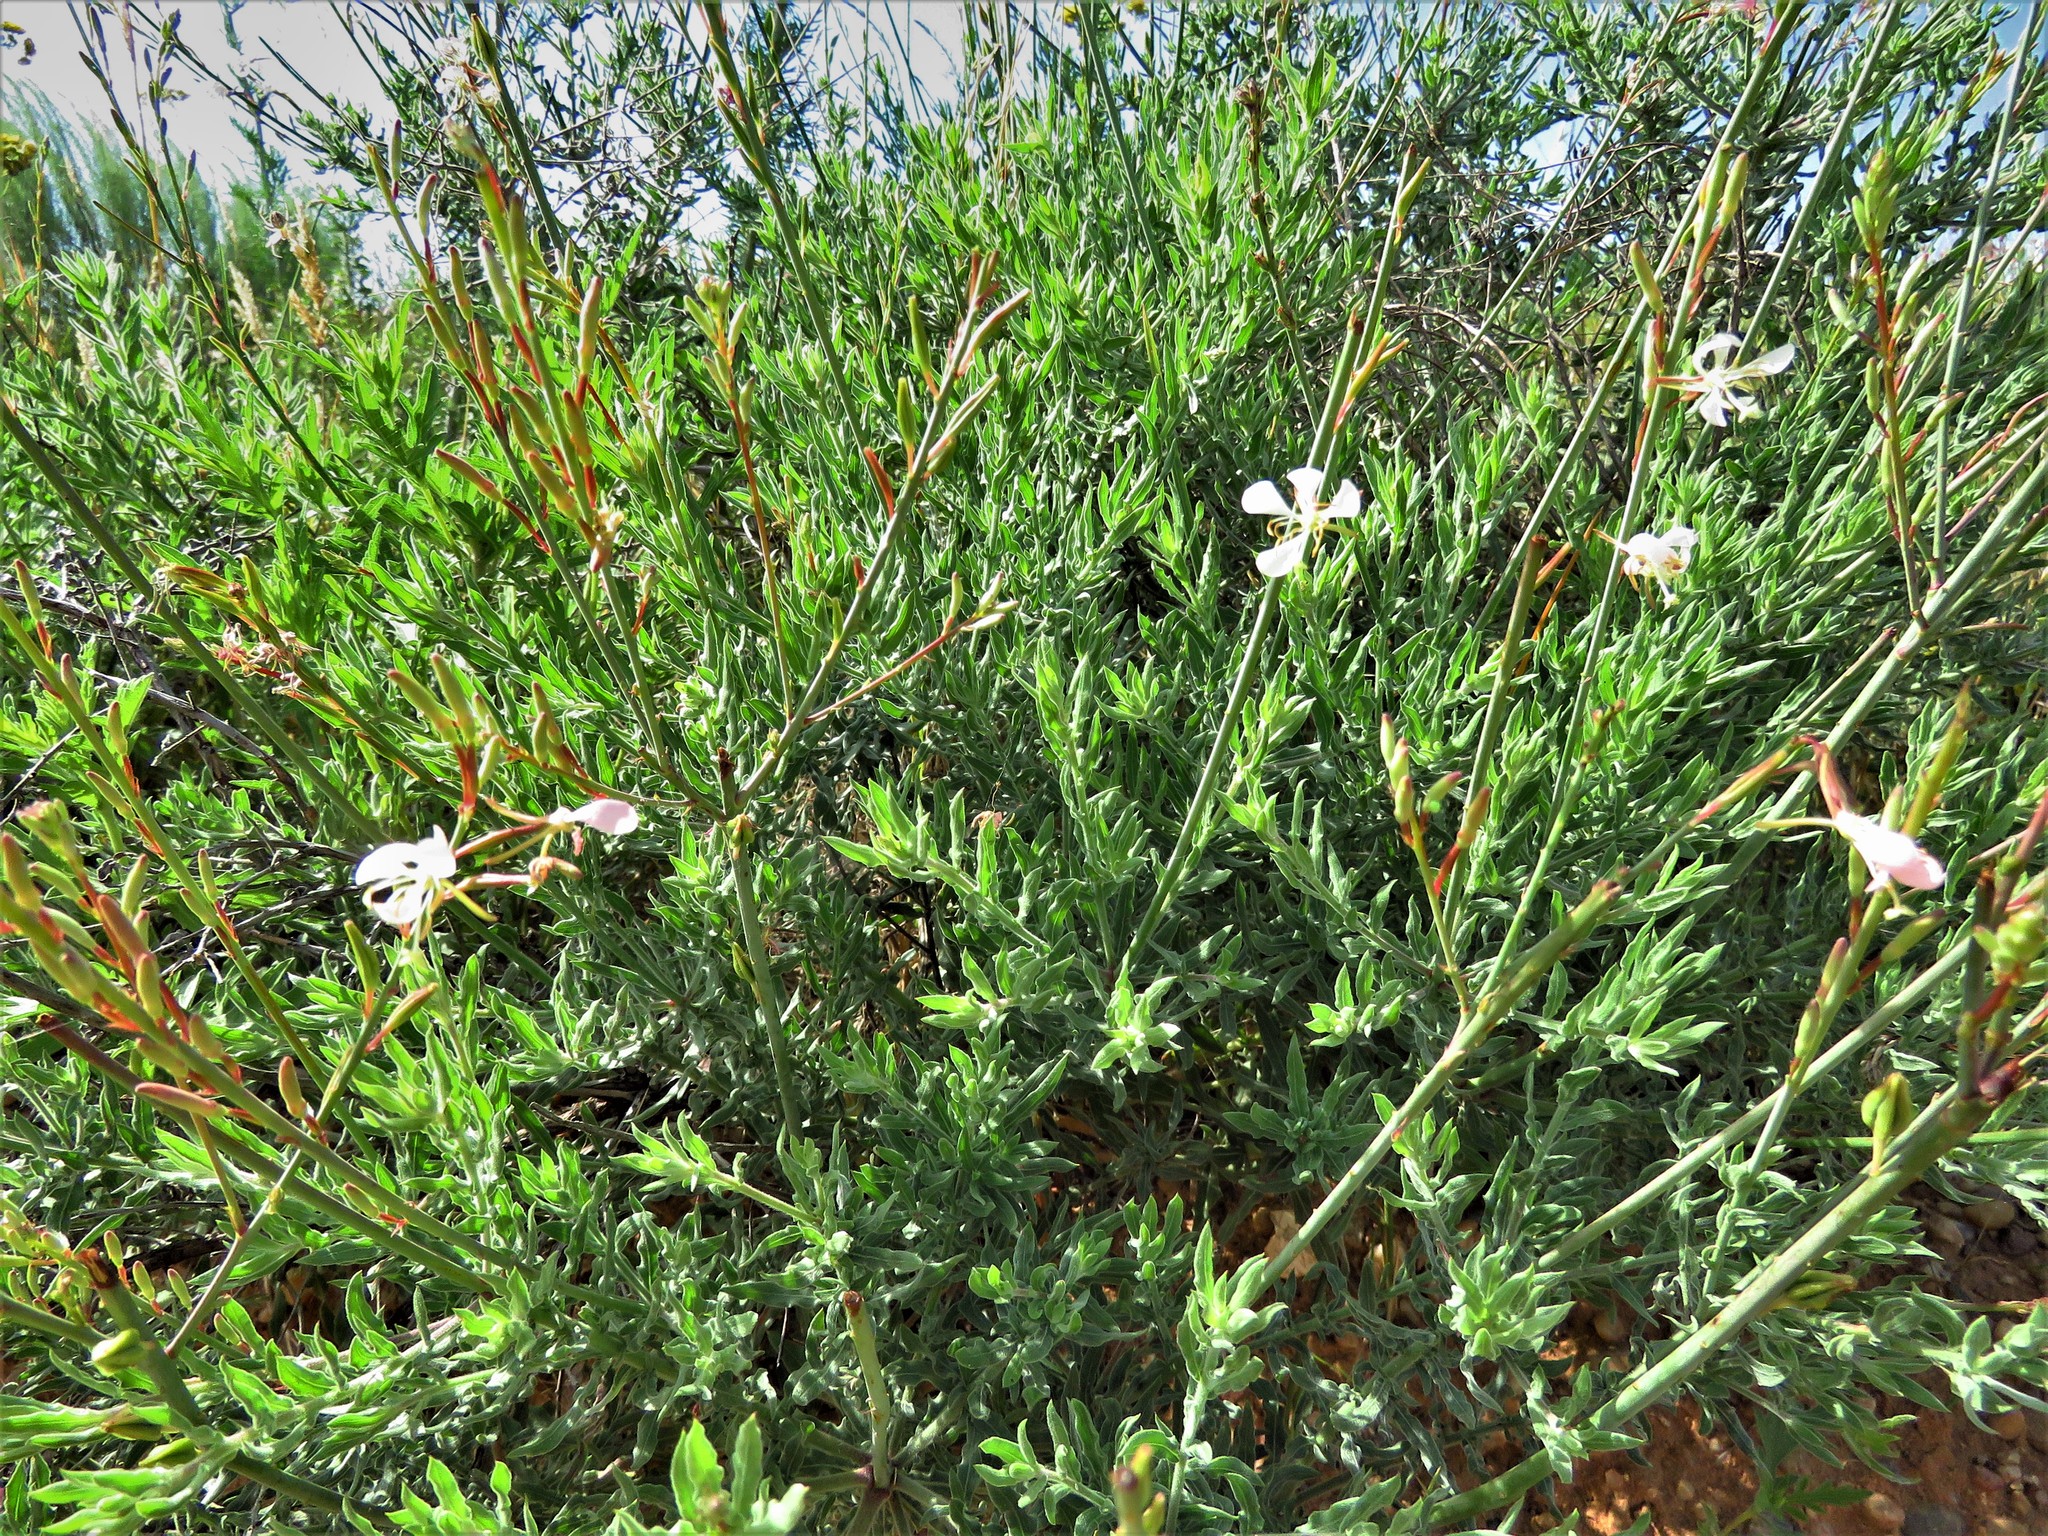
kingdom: Plantae
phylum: Tracheophyta
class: Magnoliopsida
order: Myrtales
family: Onagraceae
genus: Oenothera
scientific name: Oenothera cinerea
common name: Woolly beeblossom
